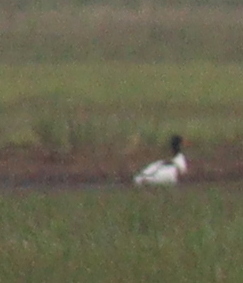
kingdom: Animalia
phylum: Chordata
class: Aves
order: Anseriformes
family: Anatidae
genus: Tadorna
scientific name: Tadorna tadorna
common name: Common shelduck
